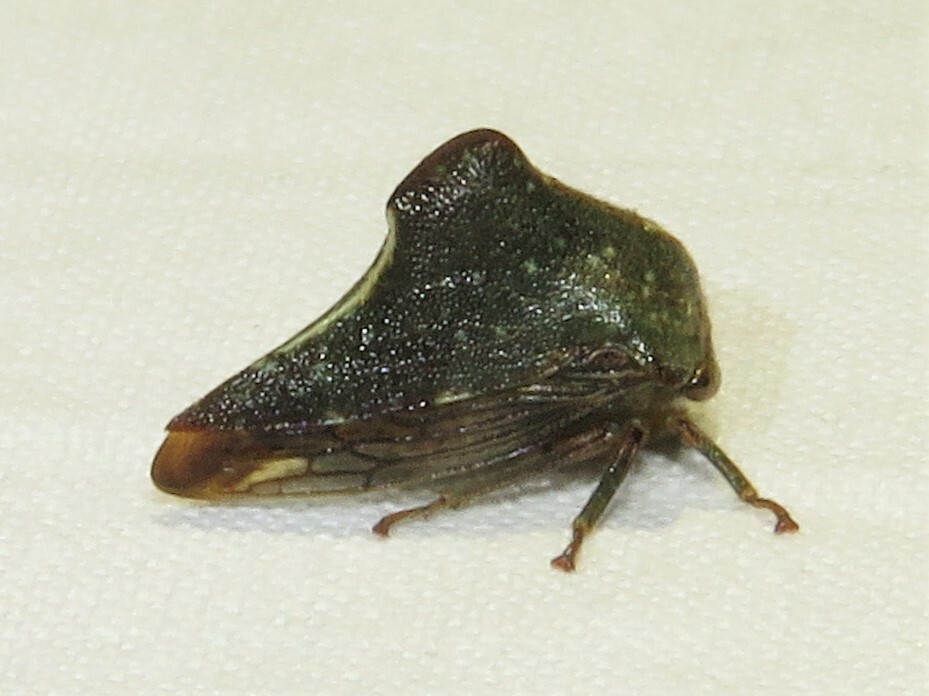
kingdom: Animalia
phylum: Arthropoda
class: Insecta
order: Hemiptera
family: Membracidae
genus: Telamona
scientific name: Telamona monticola
